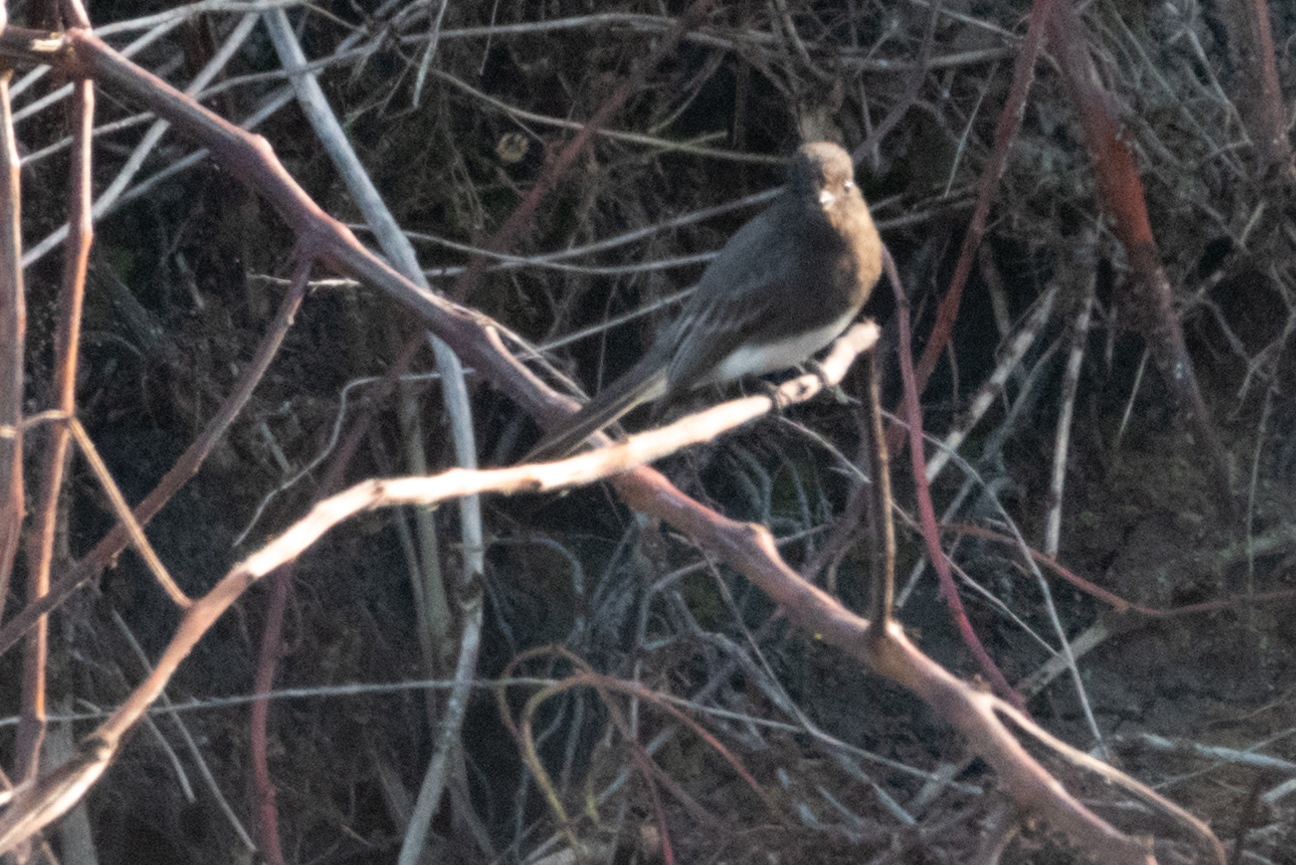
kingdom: Animalia
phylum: Chordata
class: Aves
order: Passeriformes
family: Tyrannidae
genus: Sayornis
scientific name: Sayornis nigricans
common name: Black phoebe
